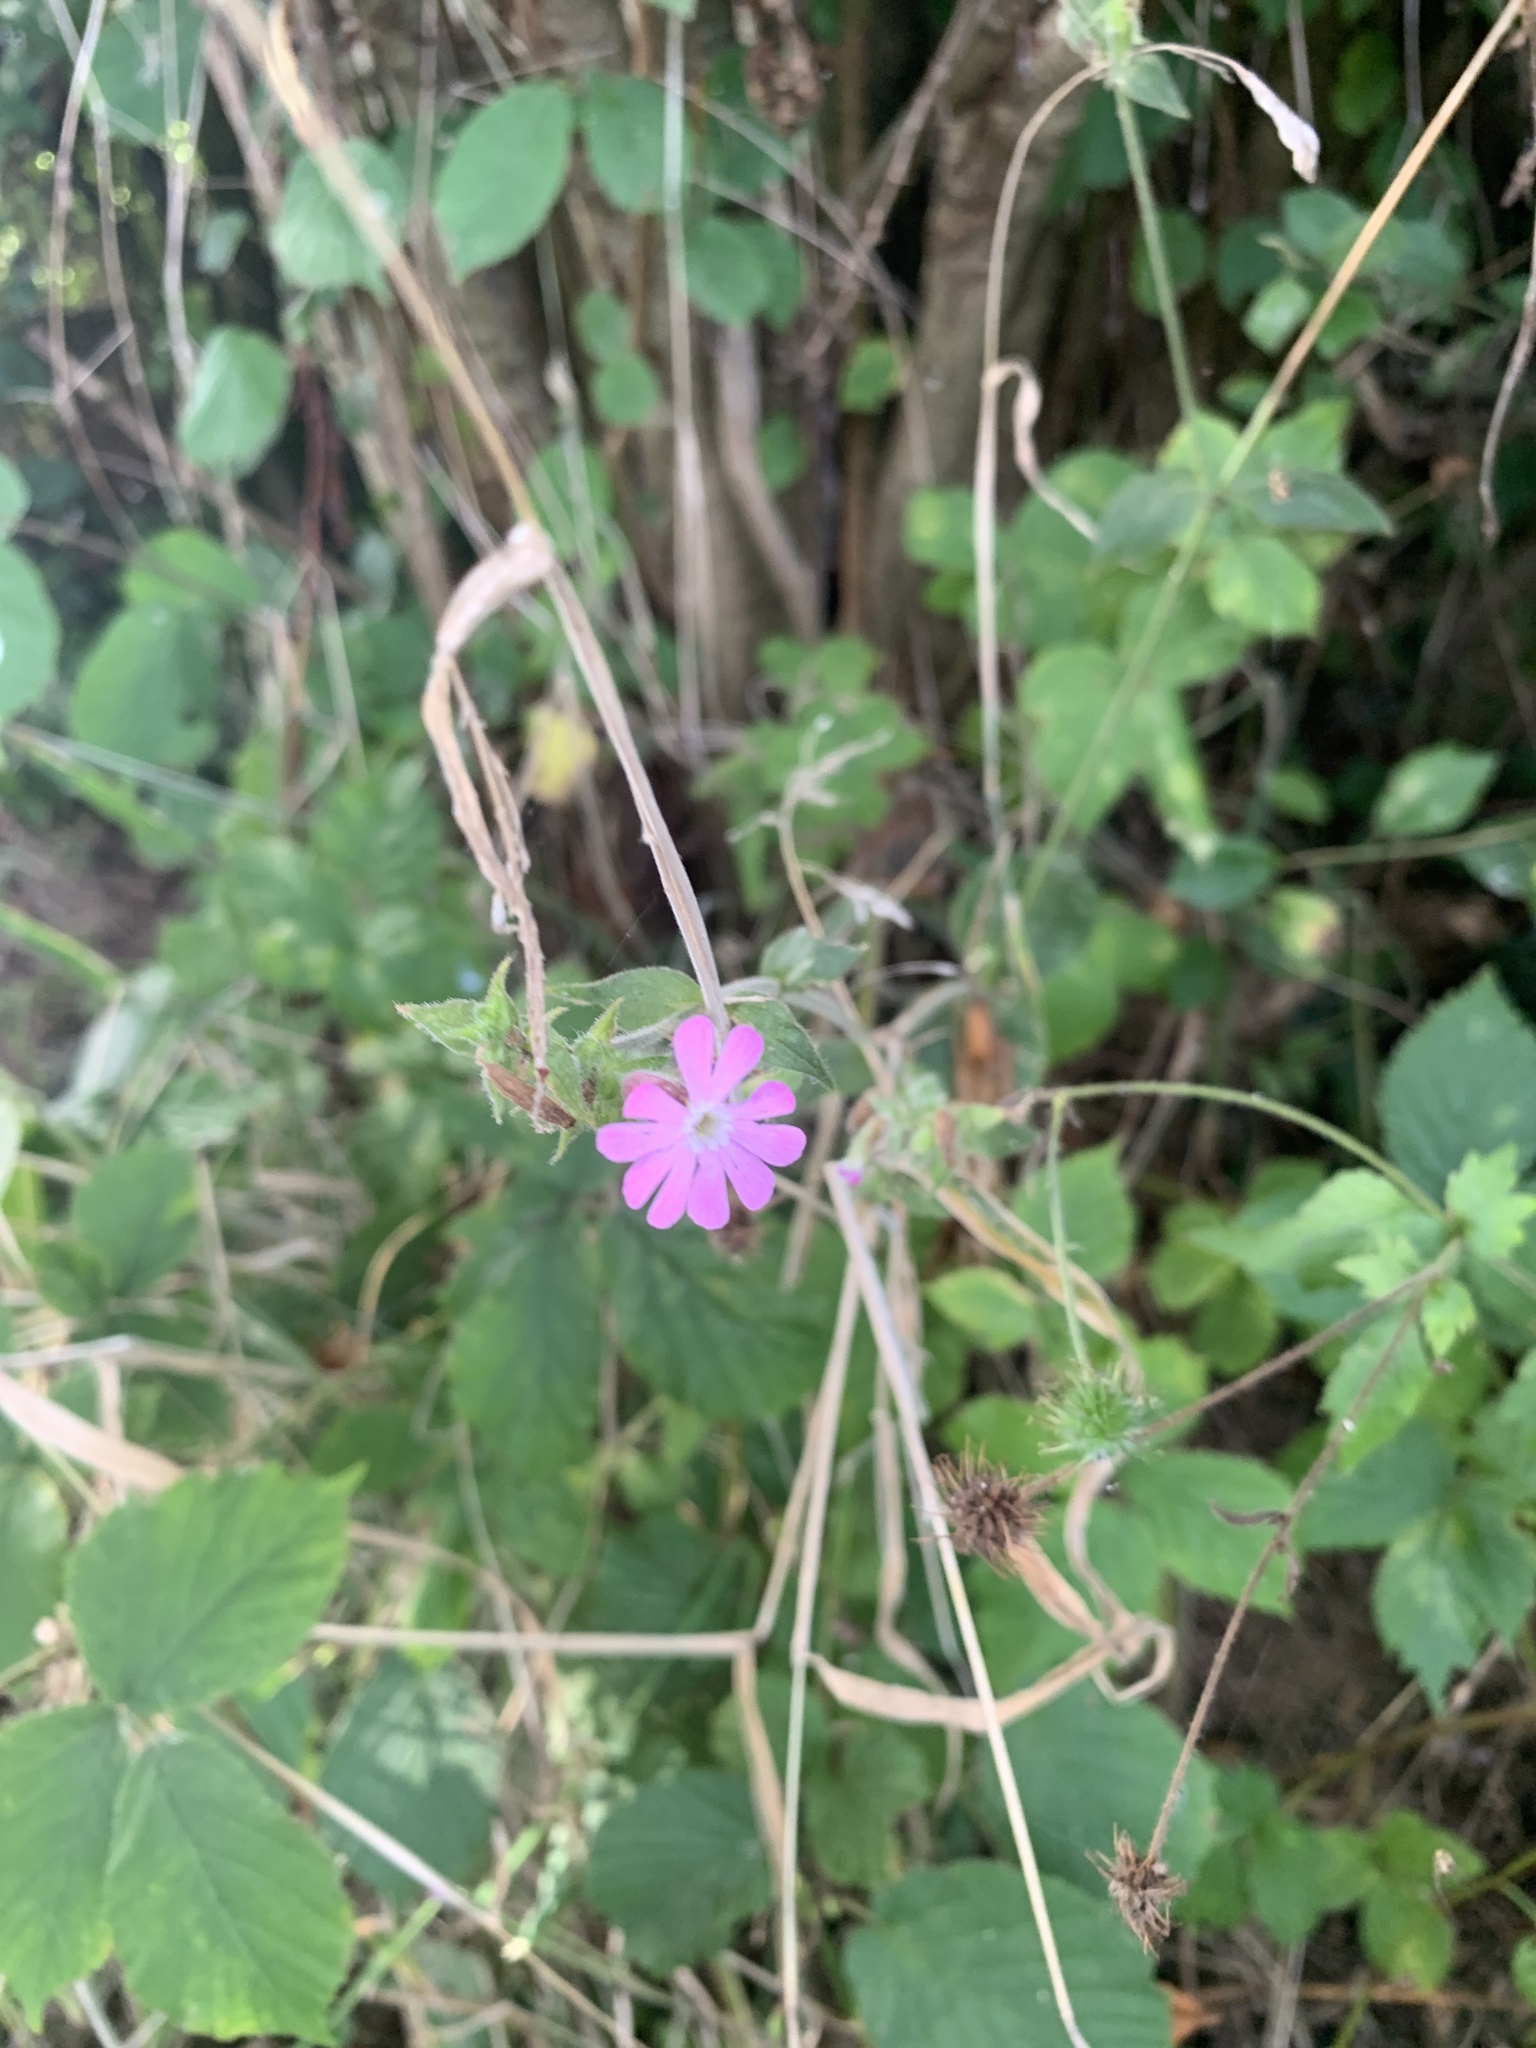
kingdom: Plantae
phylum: Tracheophyta
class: Magnoliopsida
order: Caryophyllales
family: Caryophyllaceae
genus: Silene
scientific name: Silene dioica
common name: Red campion
